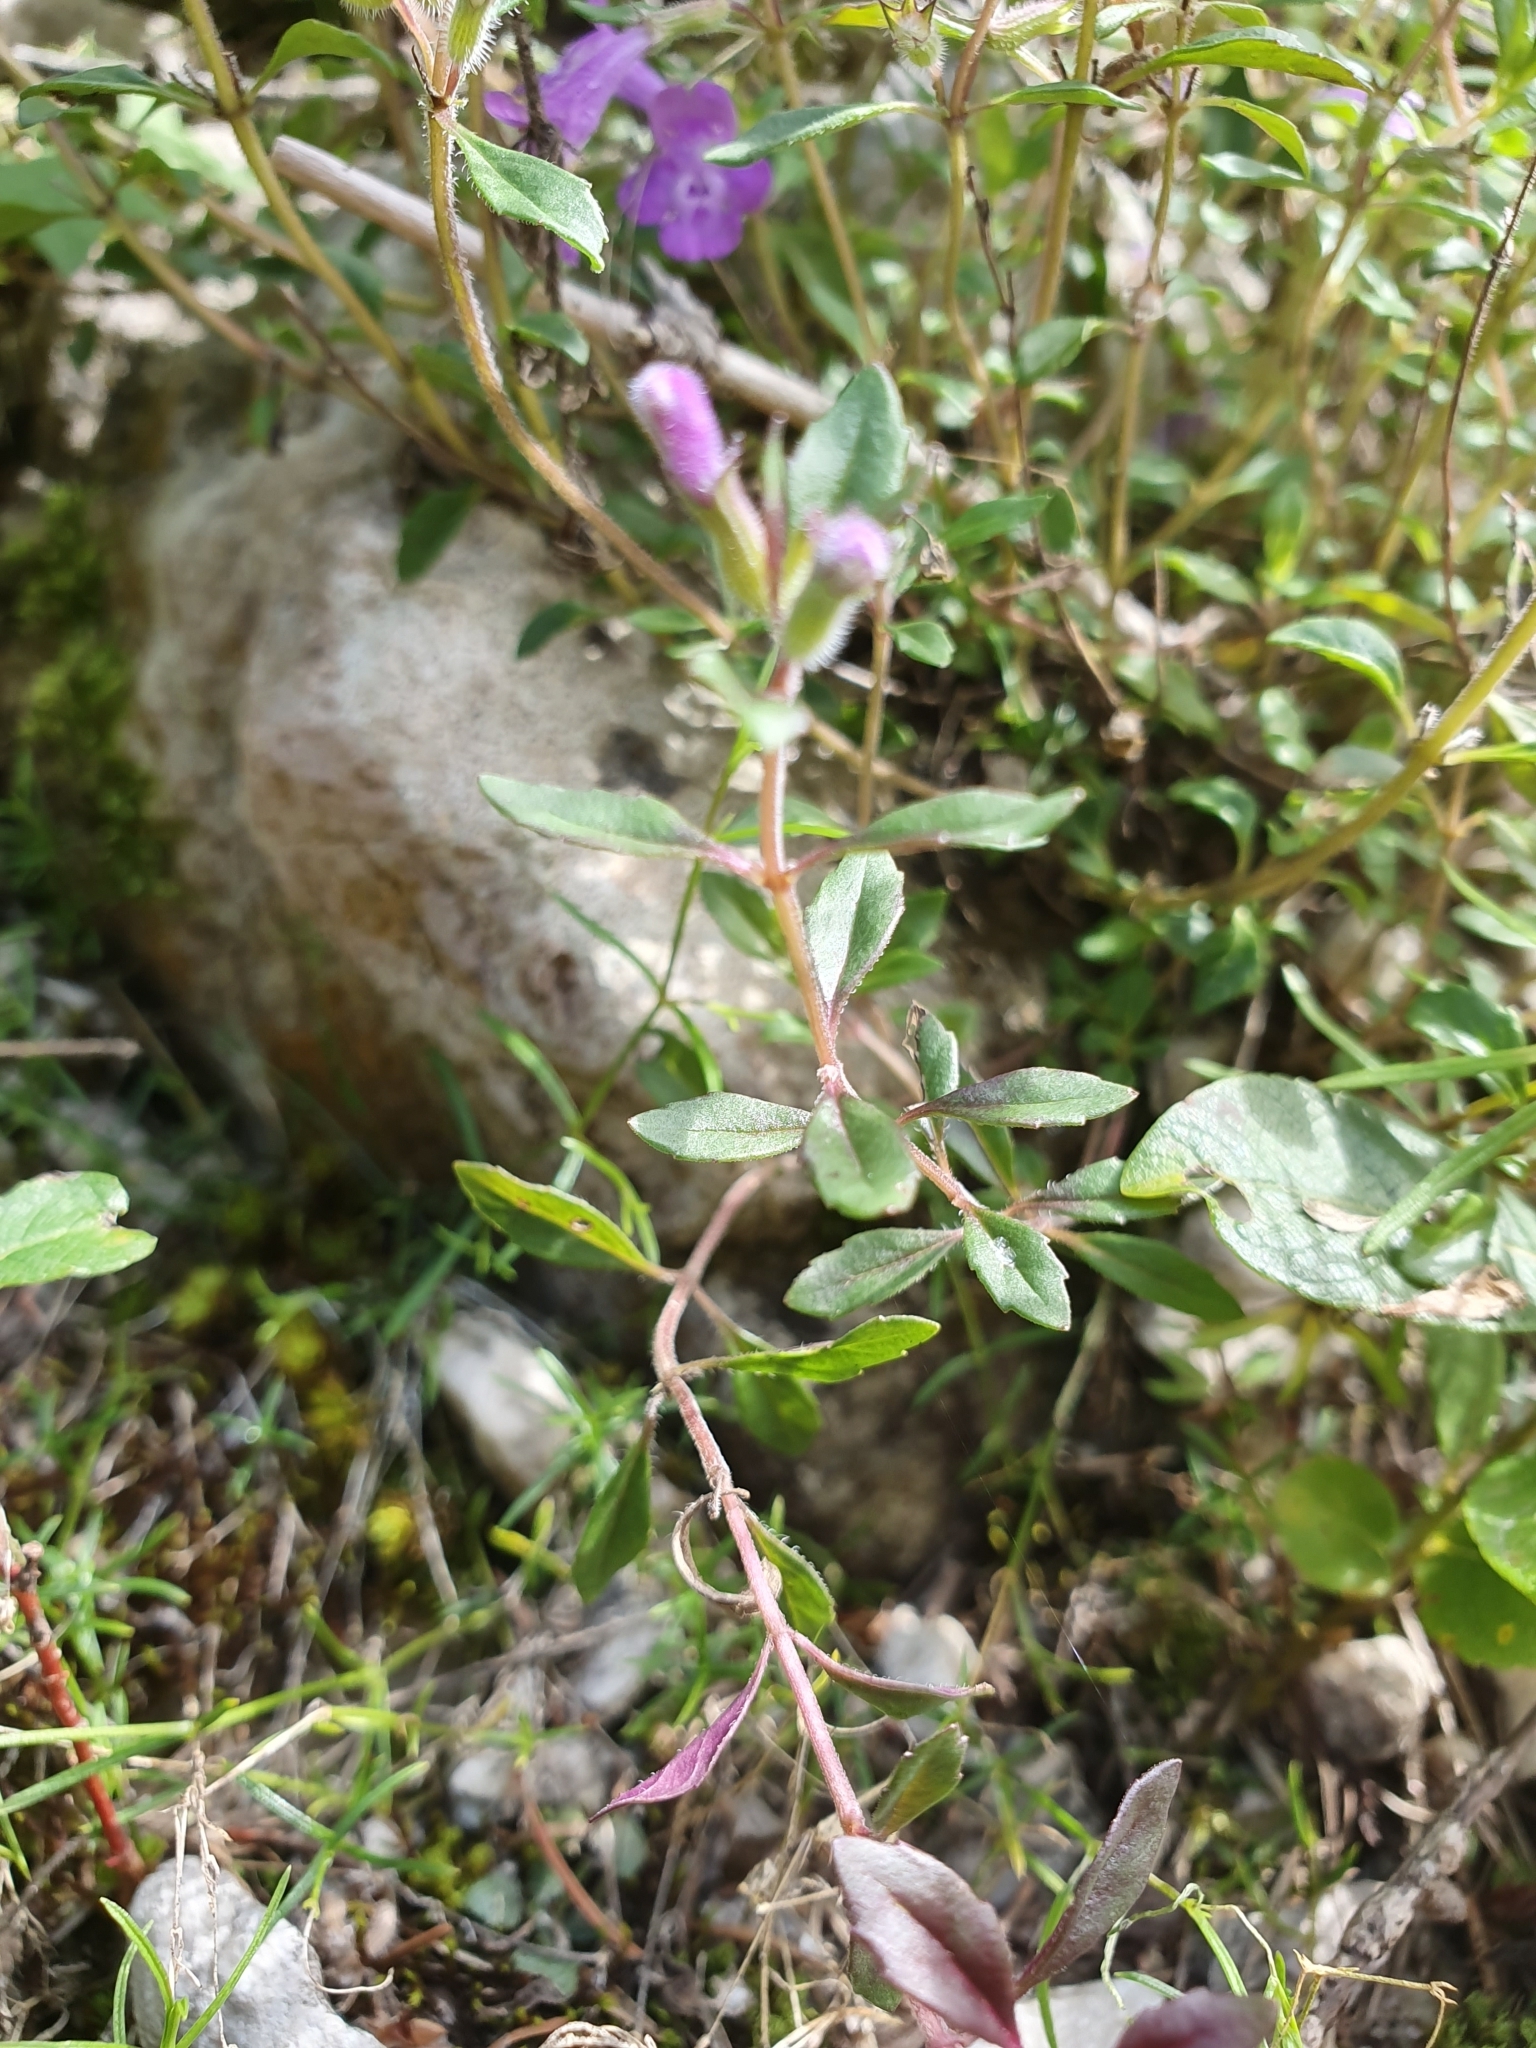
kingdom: Plantae
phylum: Tracheophyta
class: Magnoliopsida
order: Lamiales
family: Lamiaceae
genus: Clinopodium
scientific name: Clinopodium alpinum
